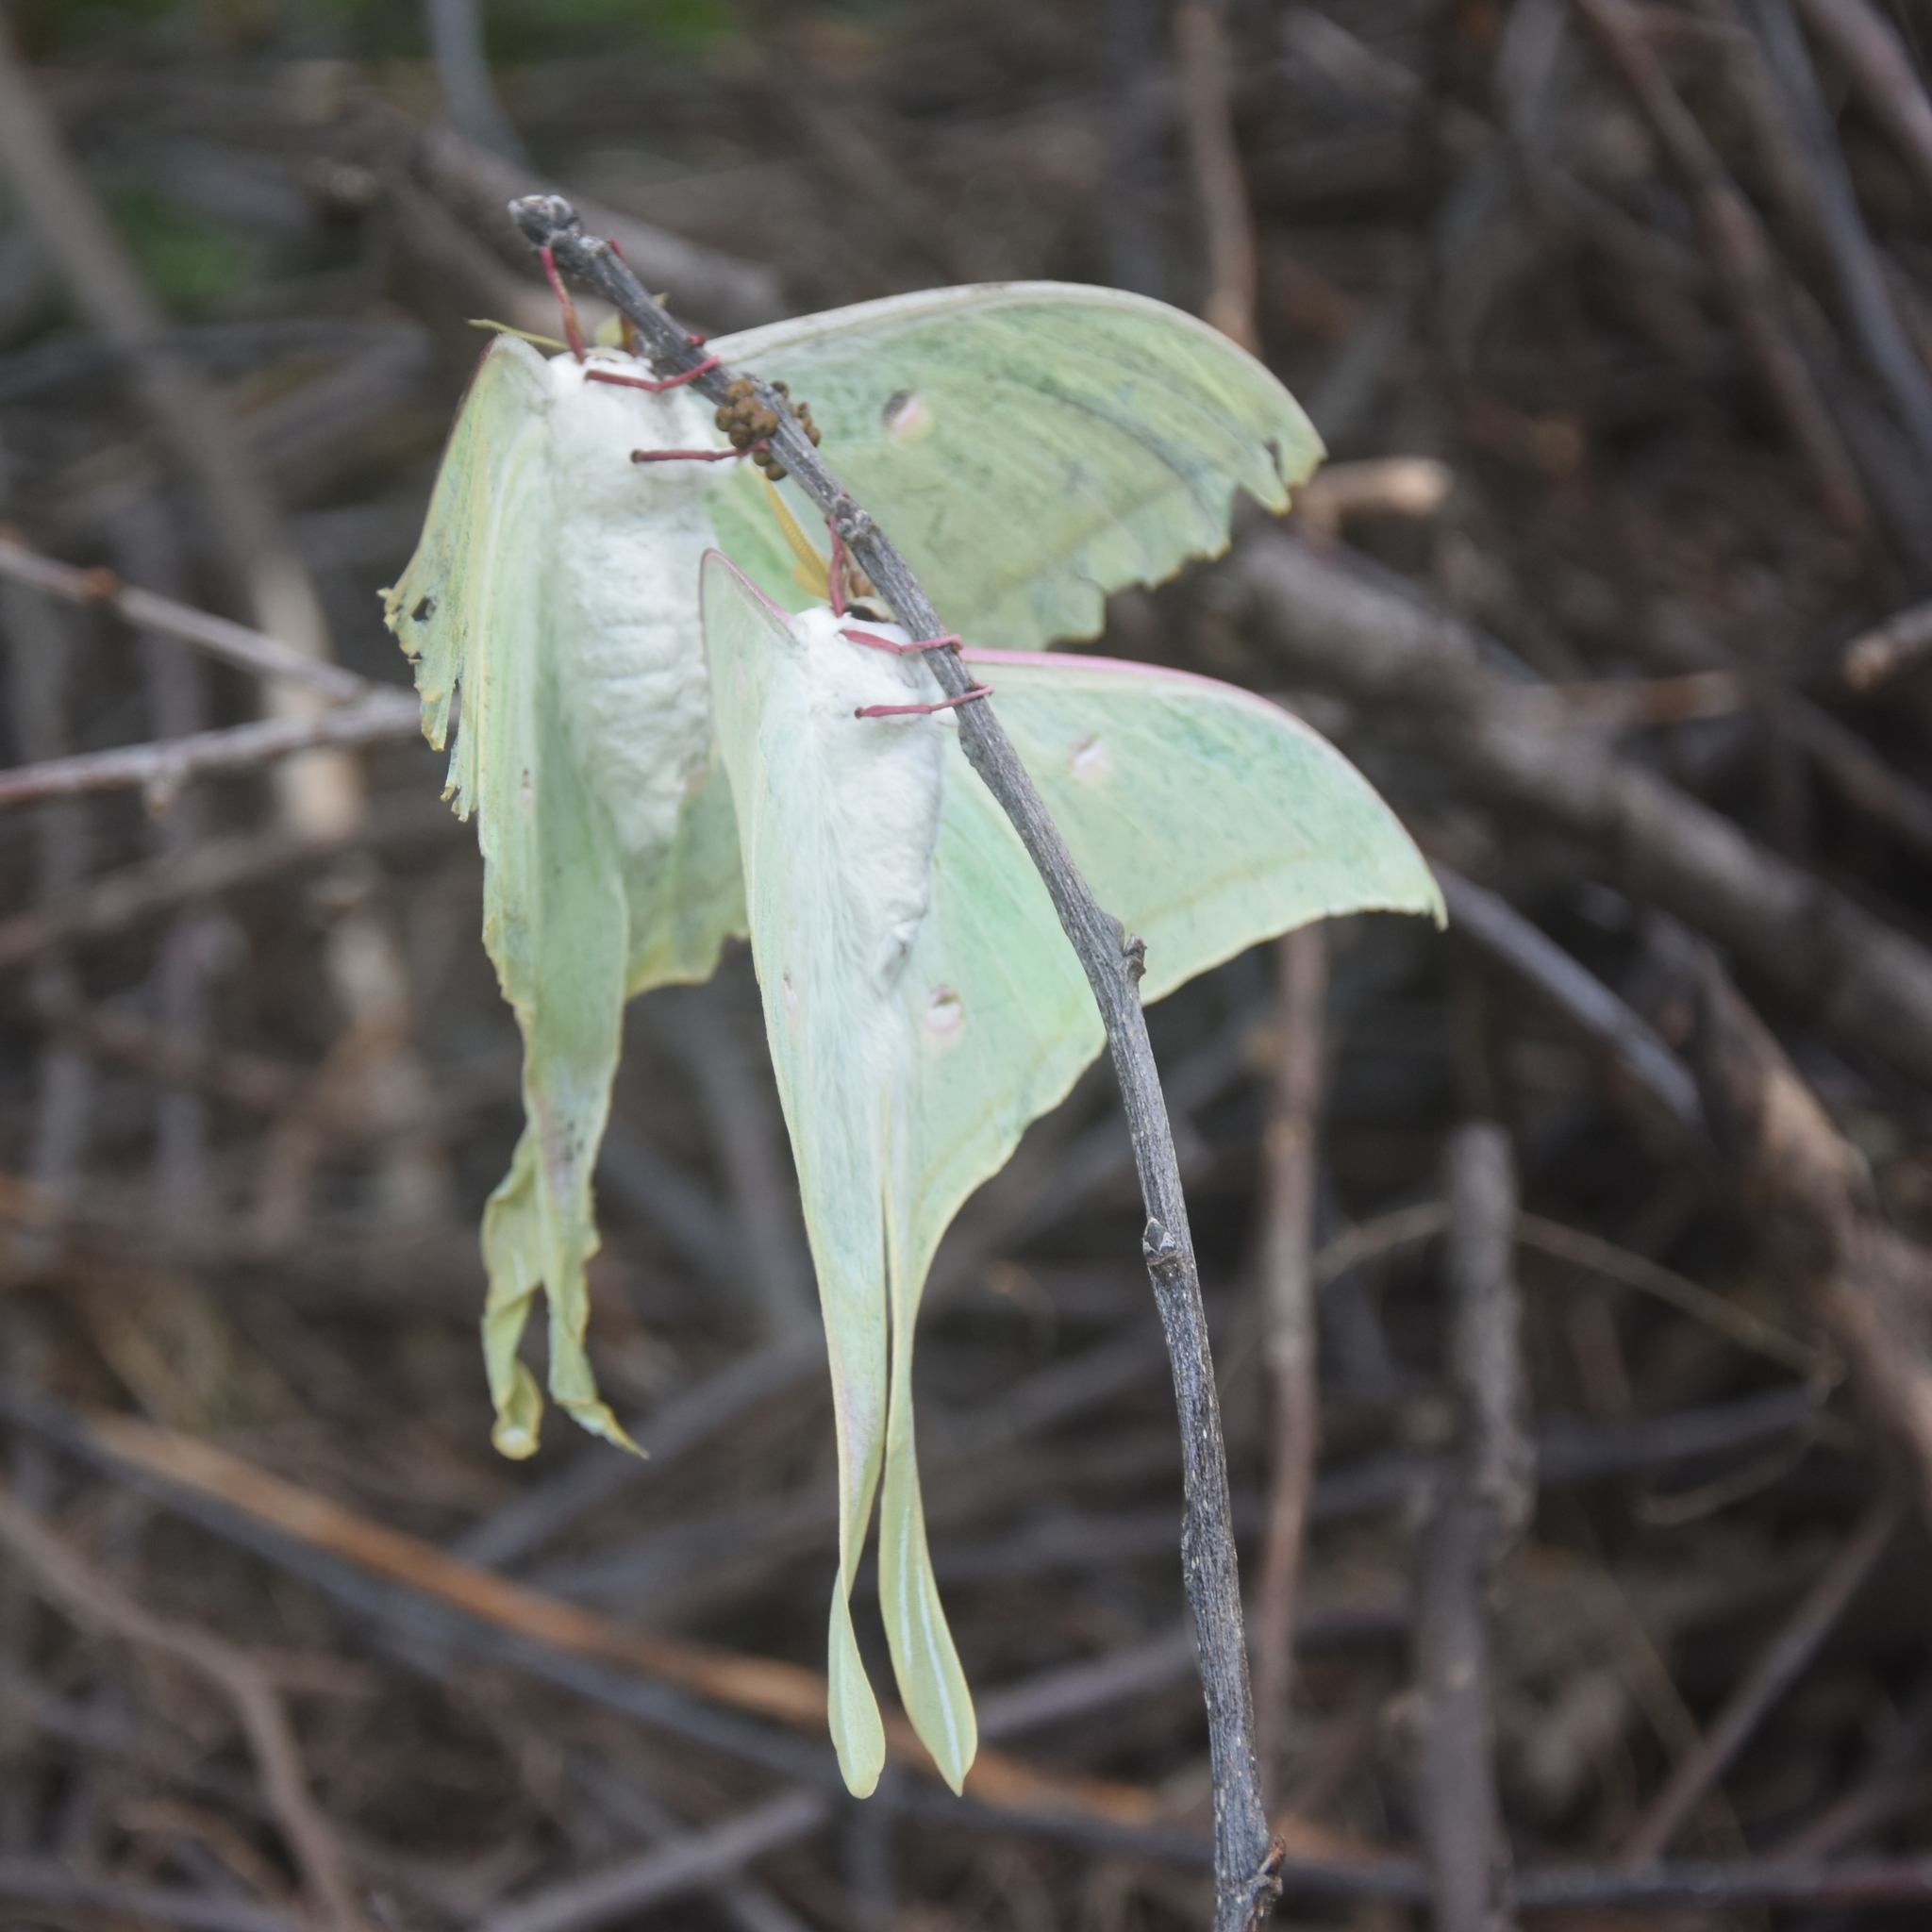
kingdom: Animalia
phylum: Arthropoda
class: Insecta
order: Lepidoptera
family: Saturniidae
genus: Actias
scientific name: Actias selene
